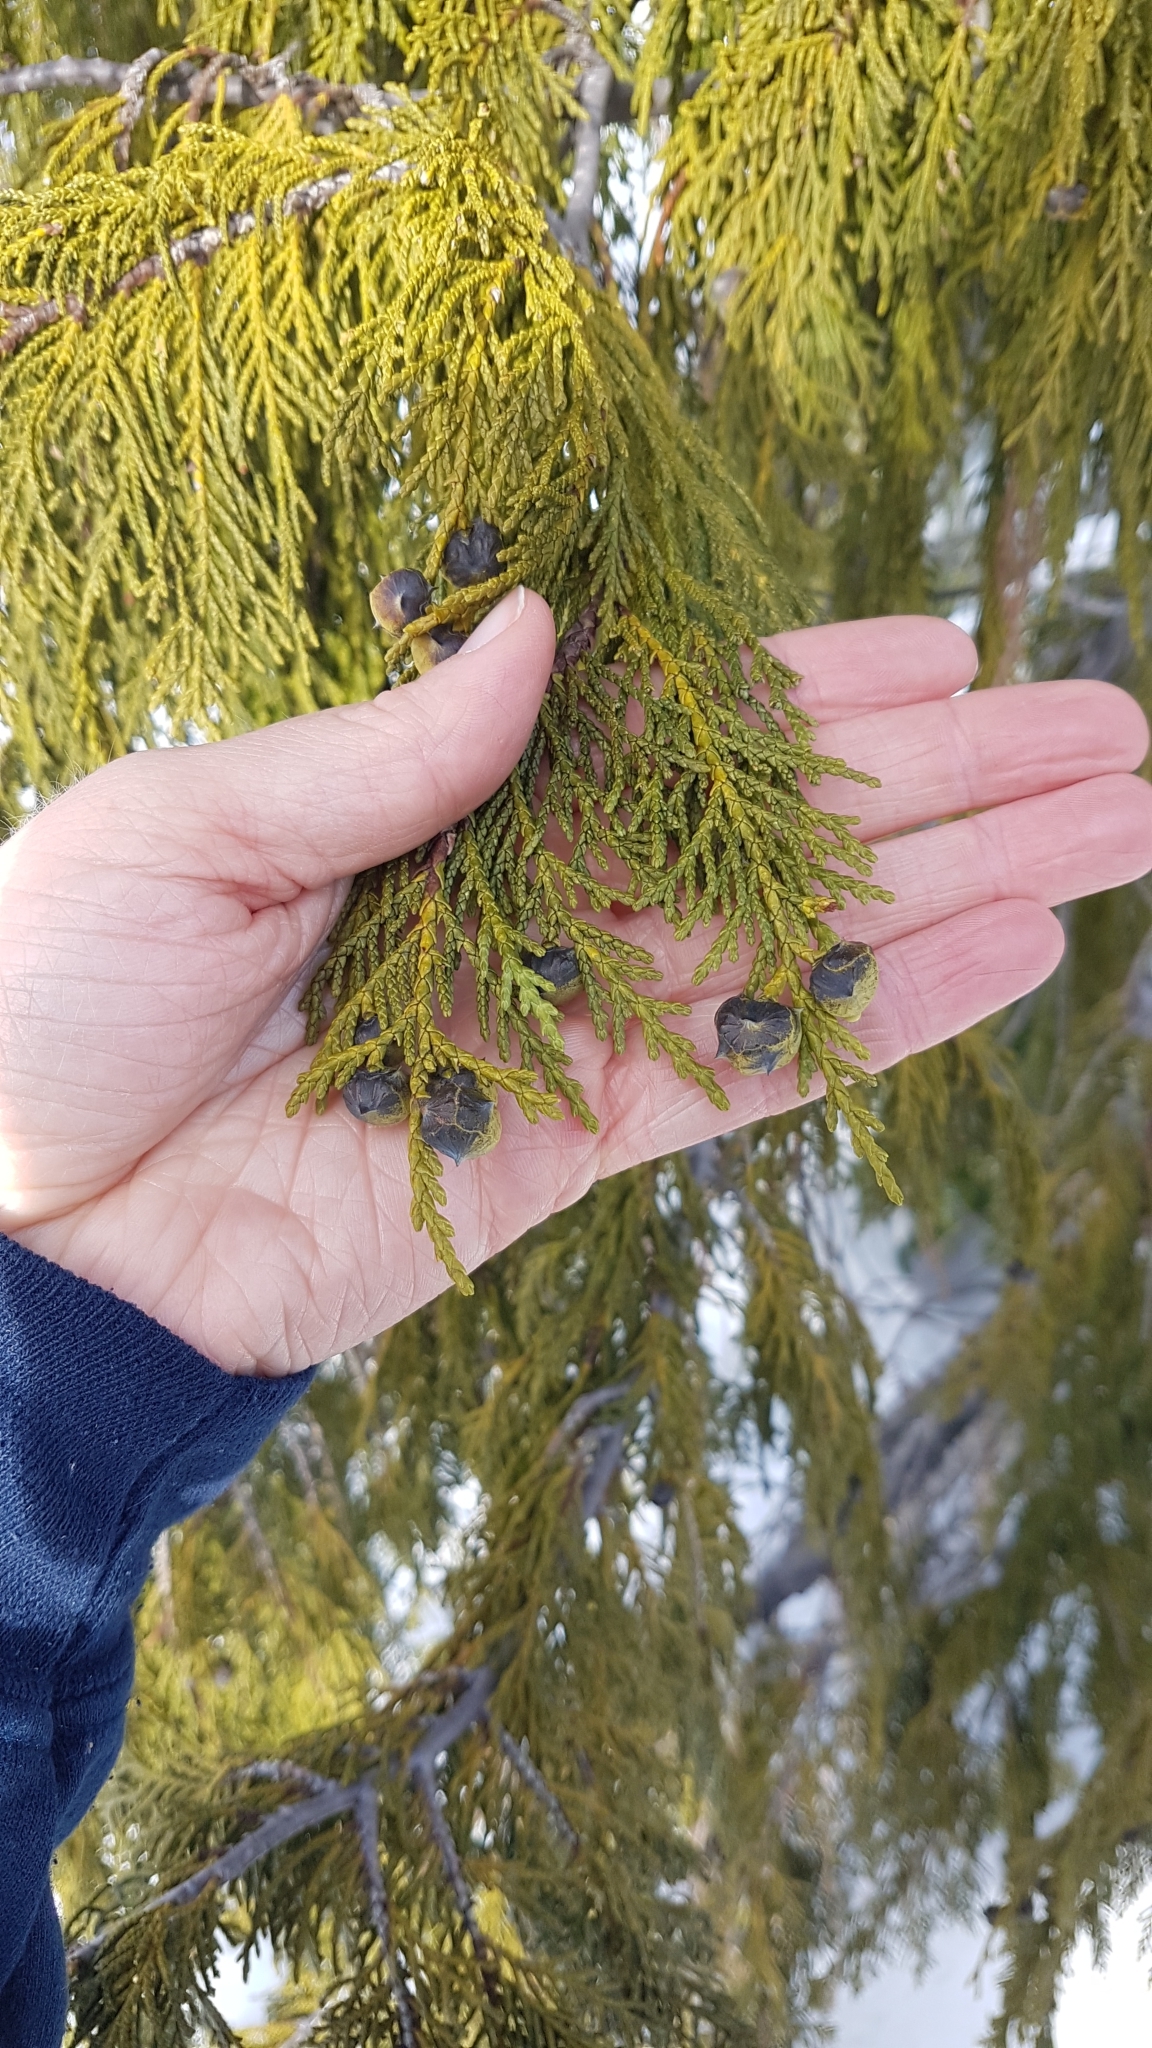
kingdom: Plantae
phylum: Tracheophyta
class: Pinopsida
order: Pinales
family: Cupressaceae
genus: Xanthocyparis
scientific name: Xanthocyparis nootkatensis
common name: Nootka cypress
